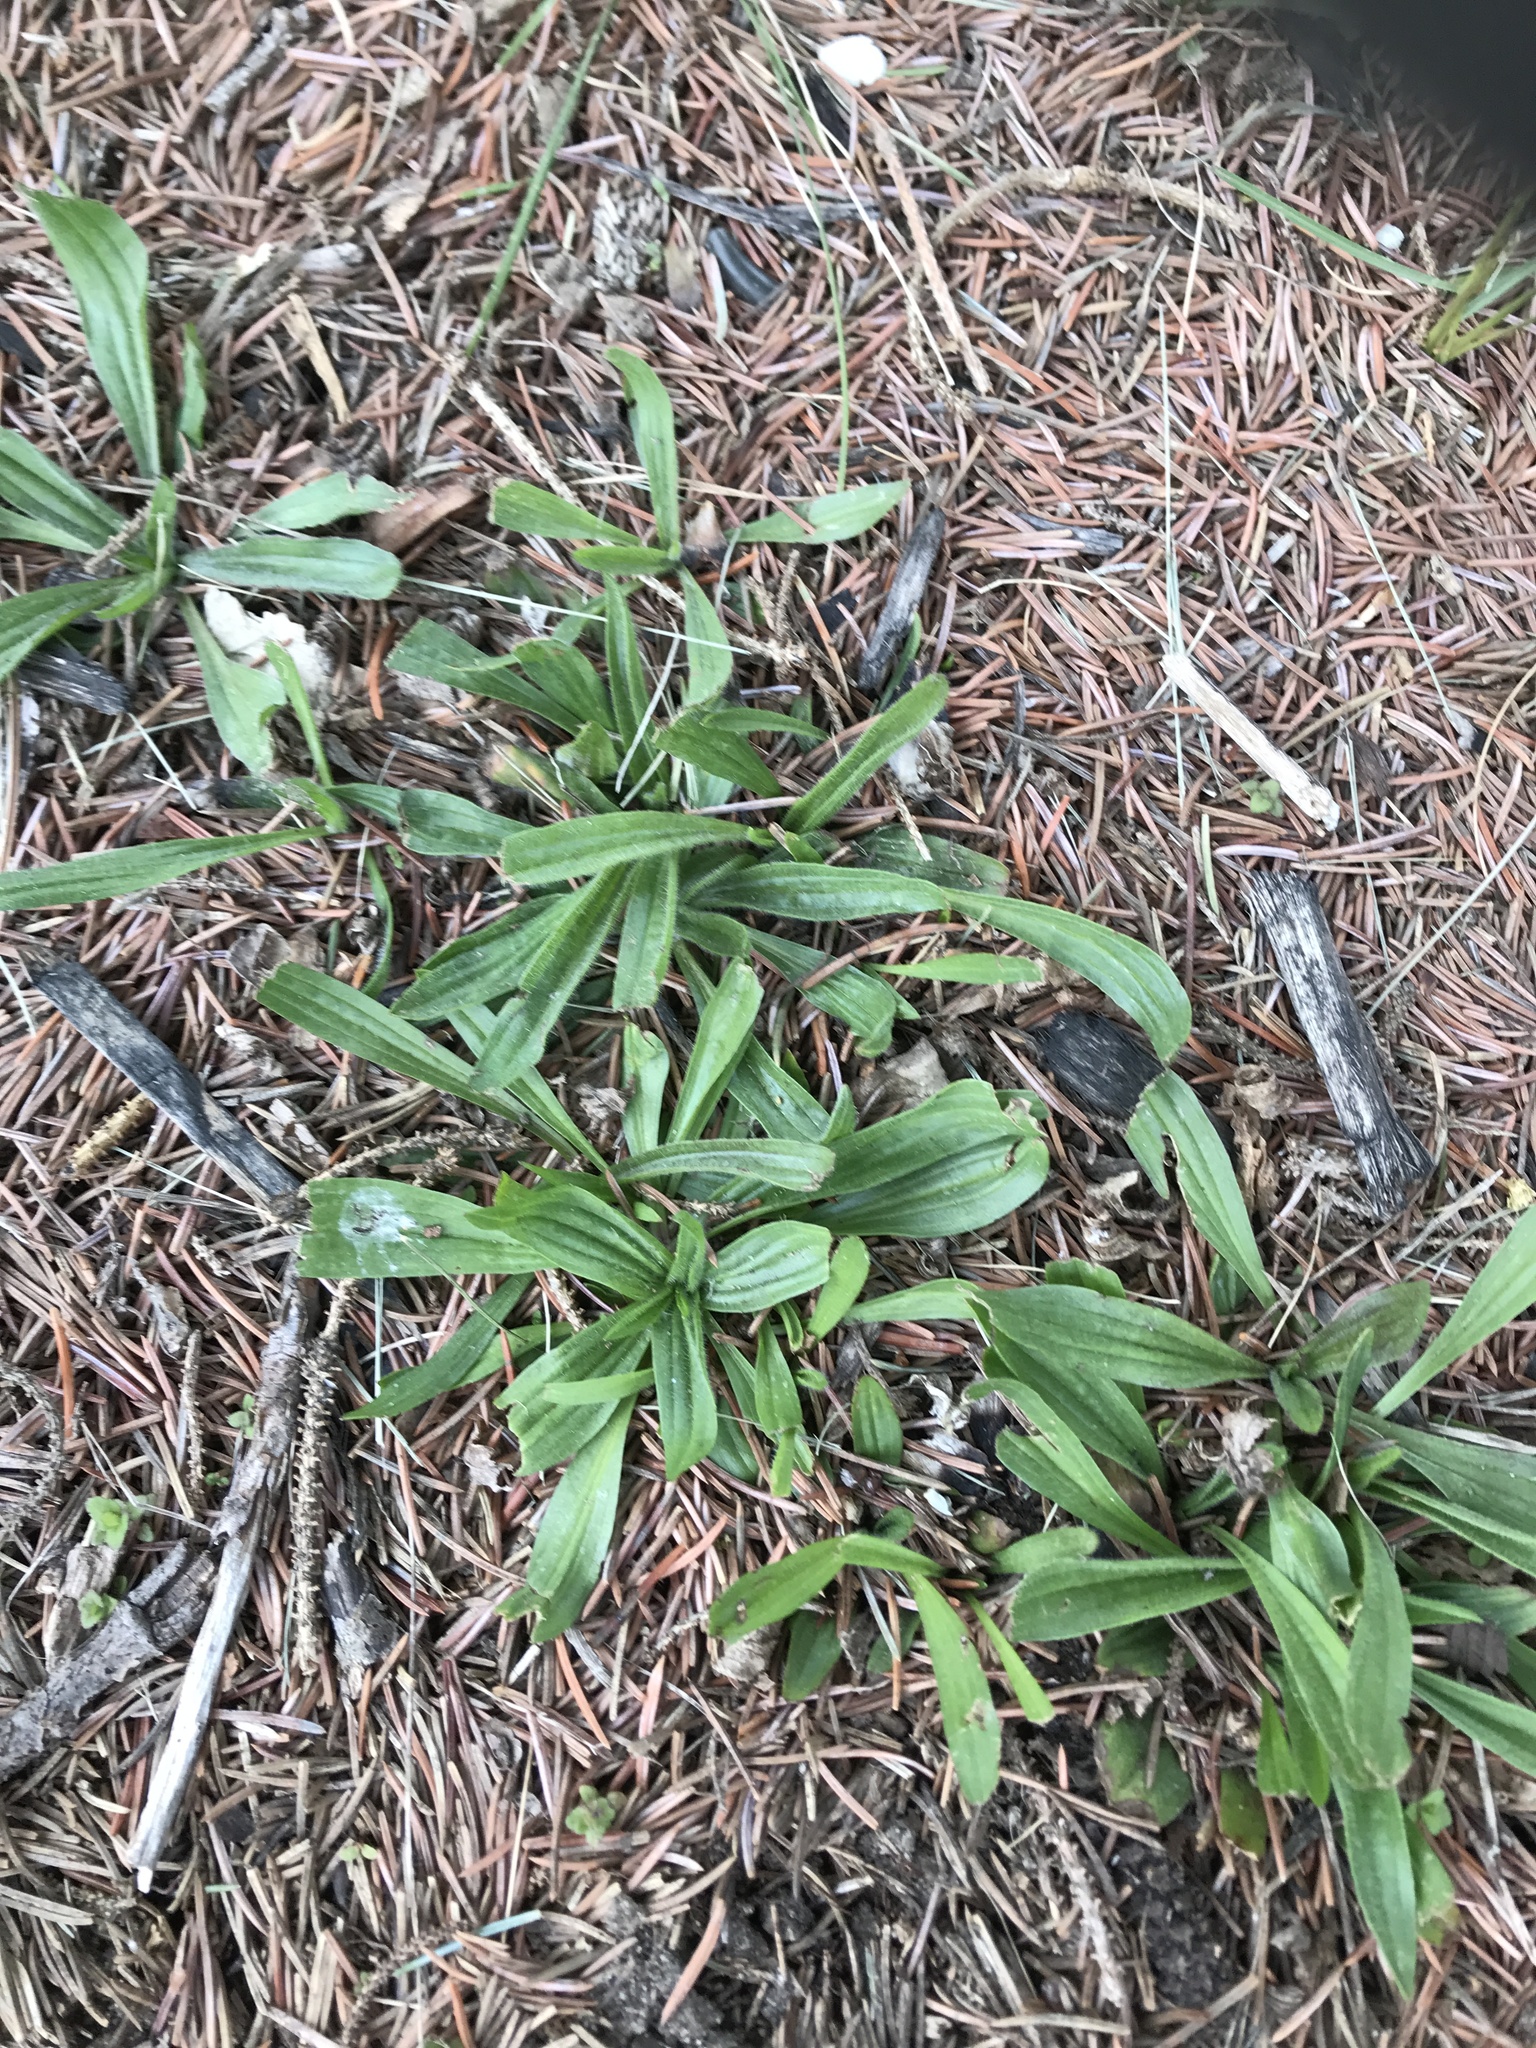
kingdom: Plantae
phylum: Tracheophyta
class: Magnoliopsida
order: Lamiales
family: Plantaginaceae
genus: Plantago
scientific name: Plantago lanceolata
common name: Ribwort plantain
